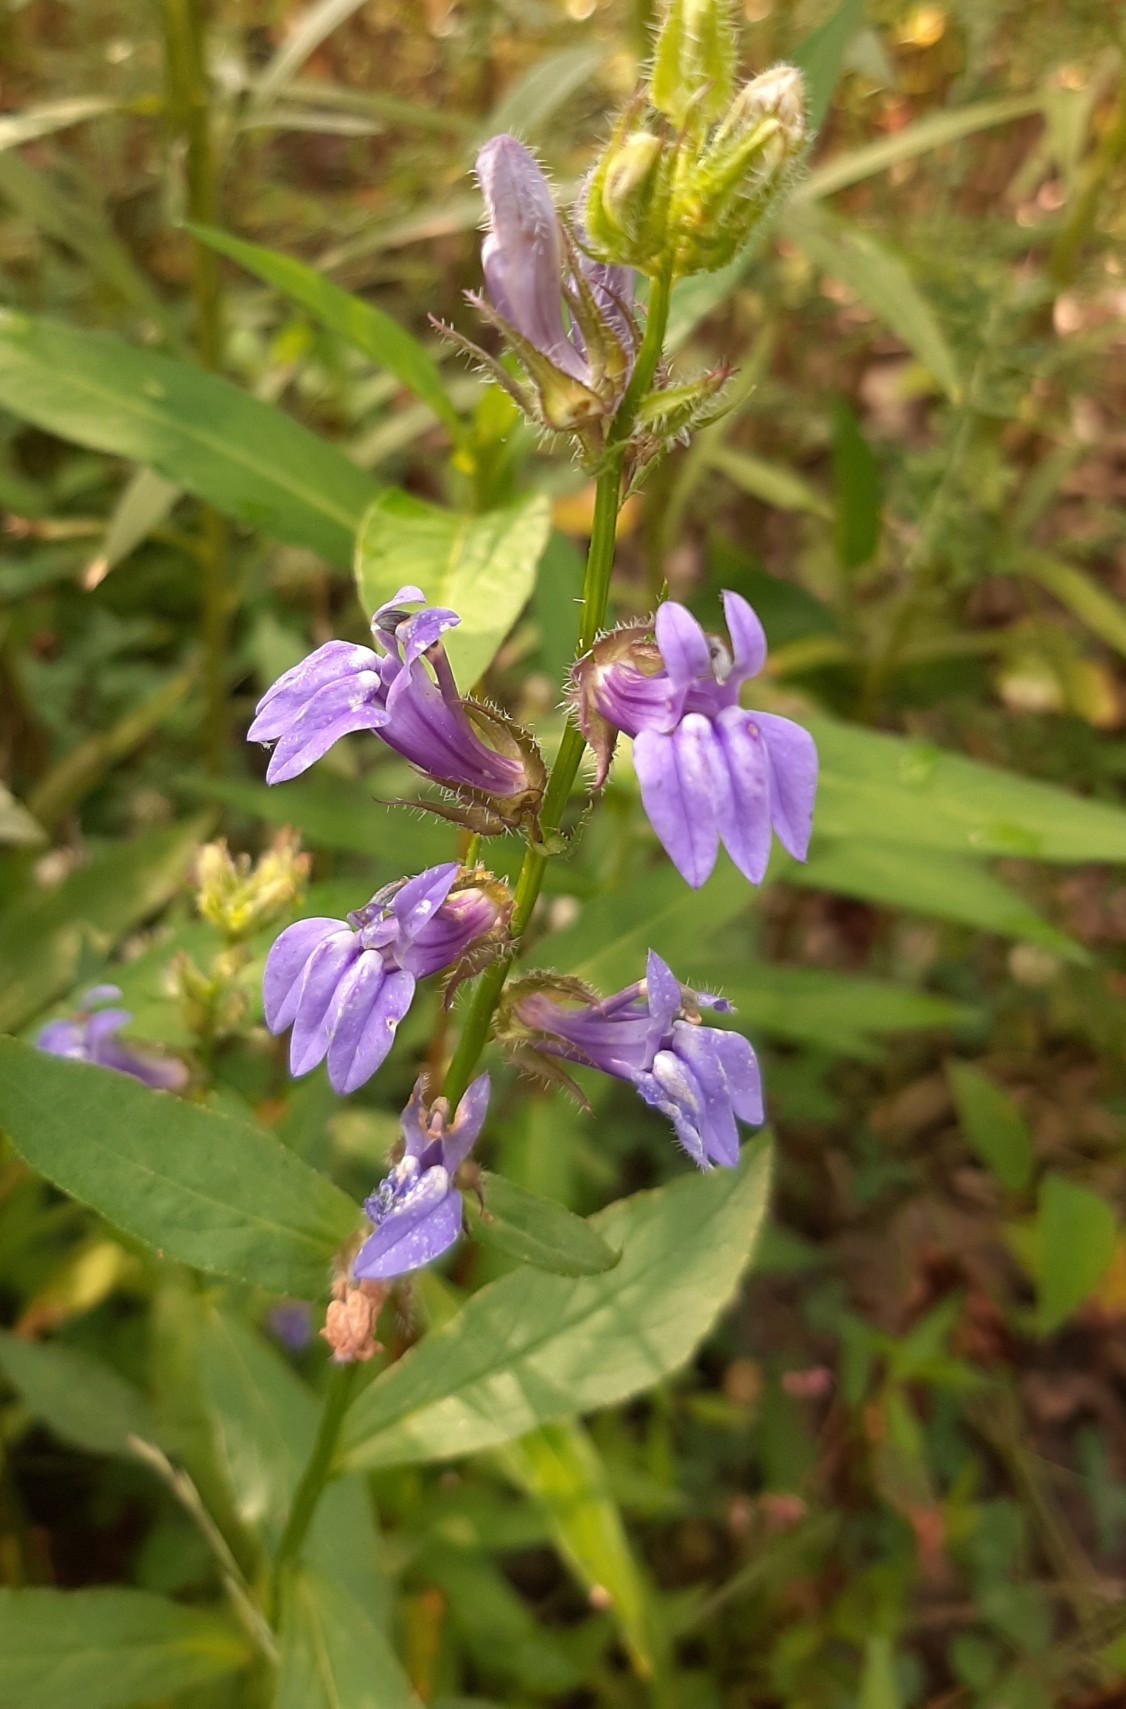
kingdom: Plantae
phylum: Tracheophyta
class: Magnoliopsida
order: Asterales
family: Campanulaceae
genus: Lobelia
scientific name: Lobelia siphilitica
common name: Great lobelia
